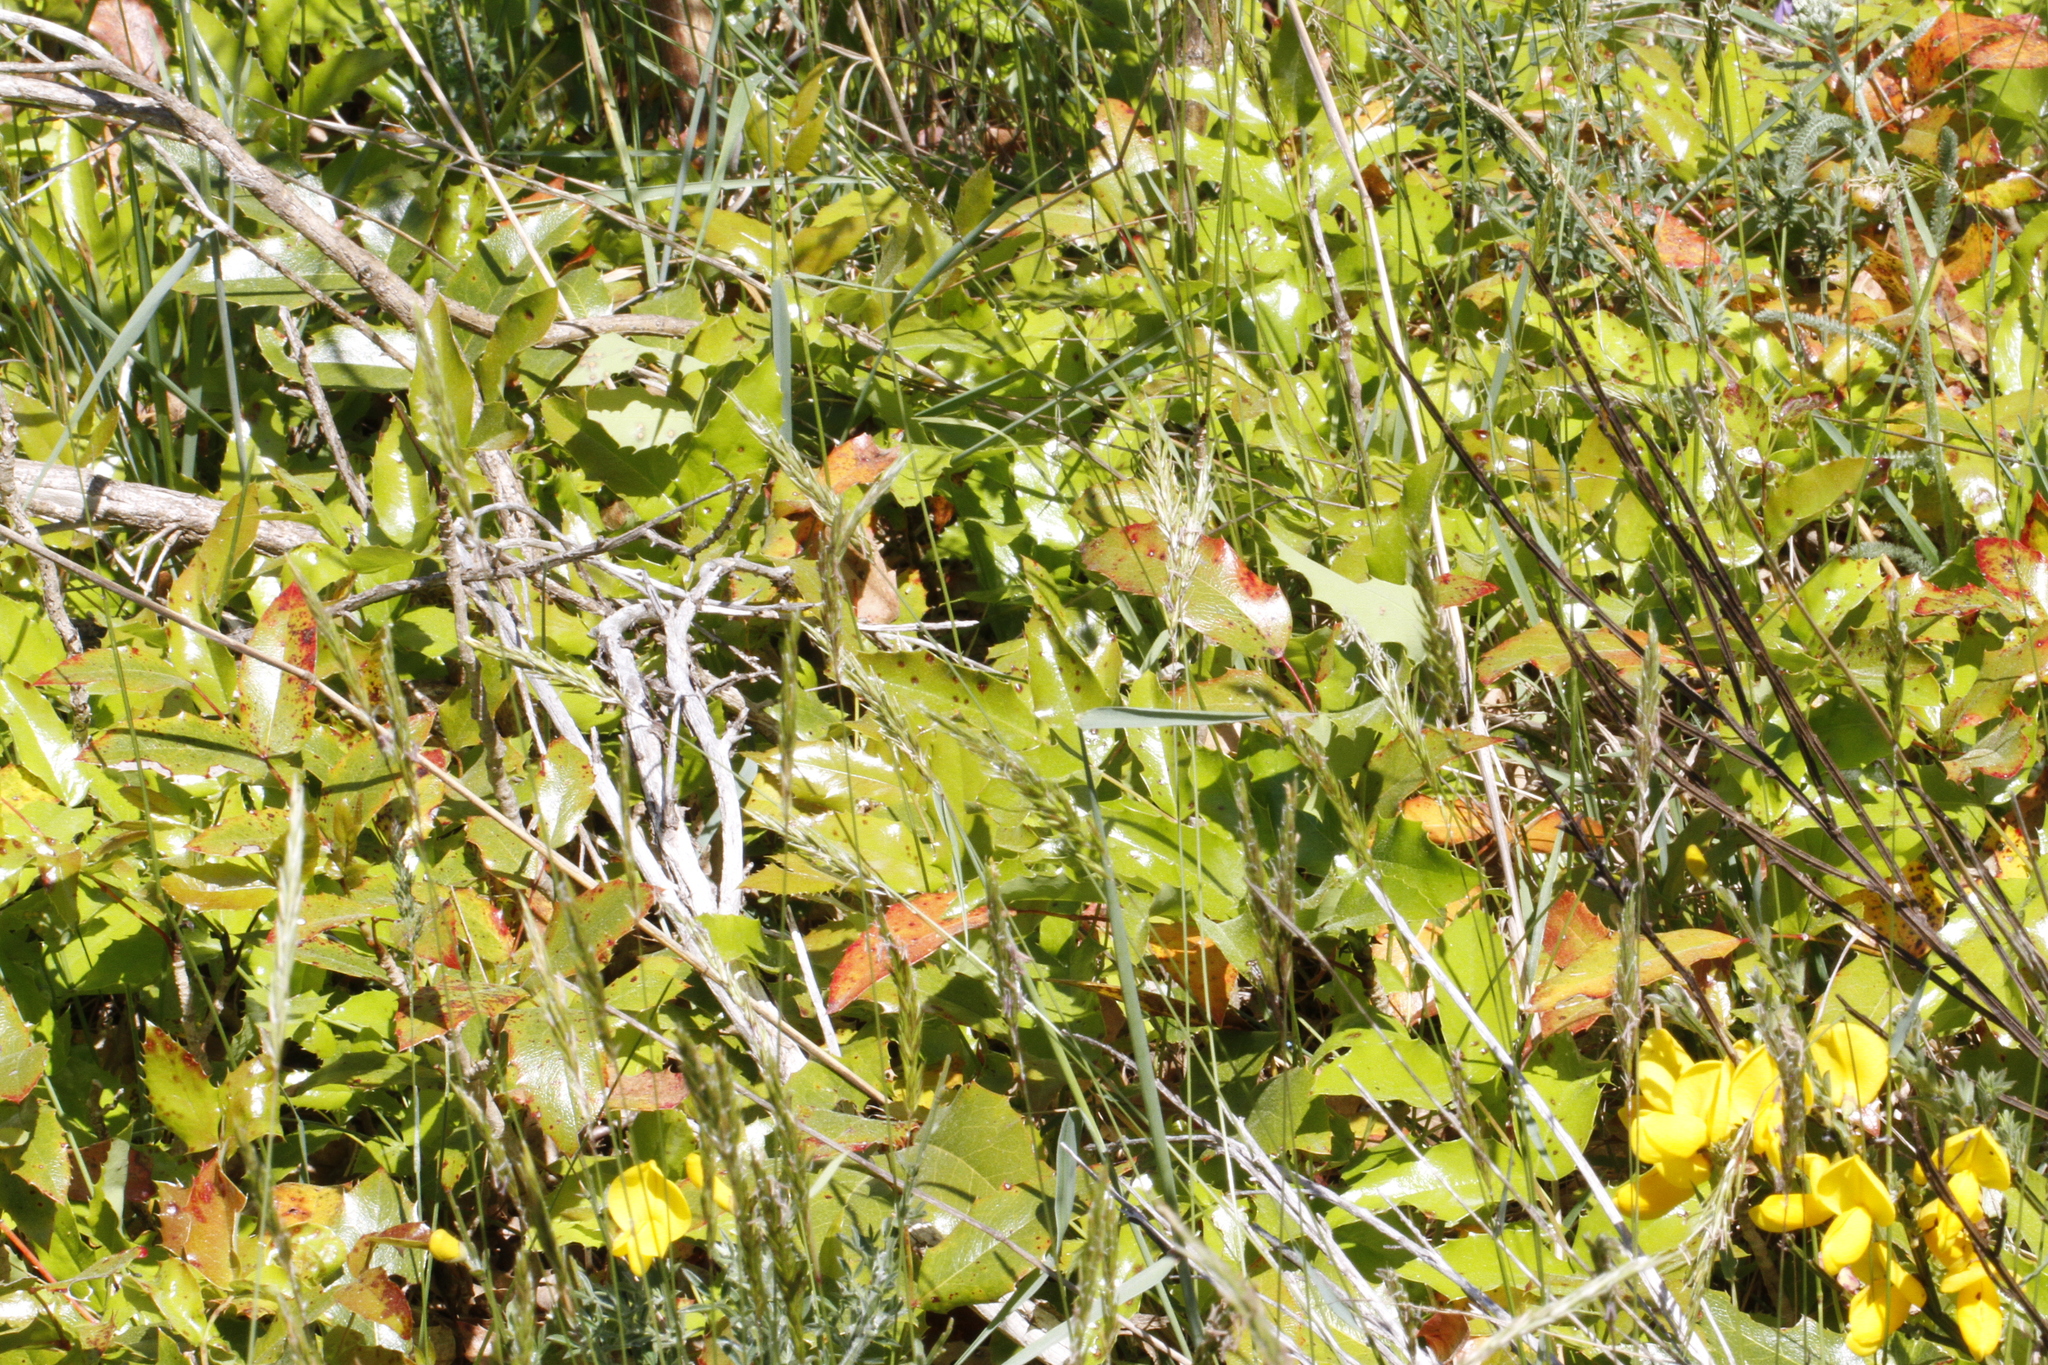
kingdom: Plantae
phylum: Tracheophyta
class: Magnoliopsida
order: Ranunculales
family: Berberidaceae
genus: Mahonia
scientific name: Mahonia aquifolium
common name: Oregon-grape
